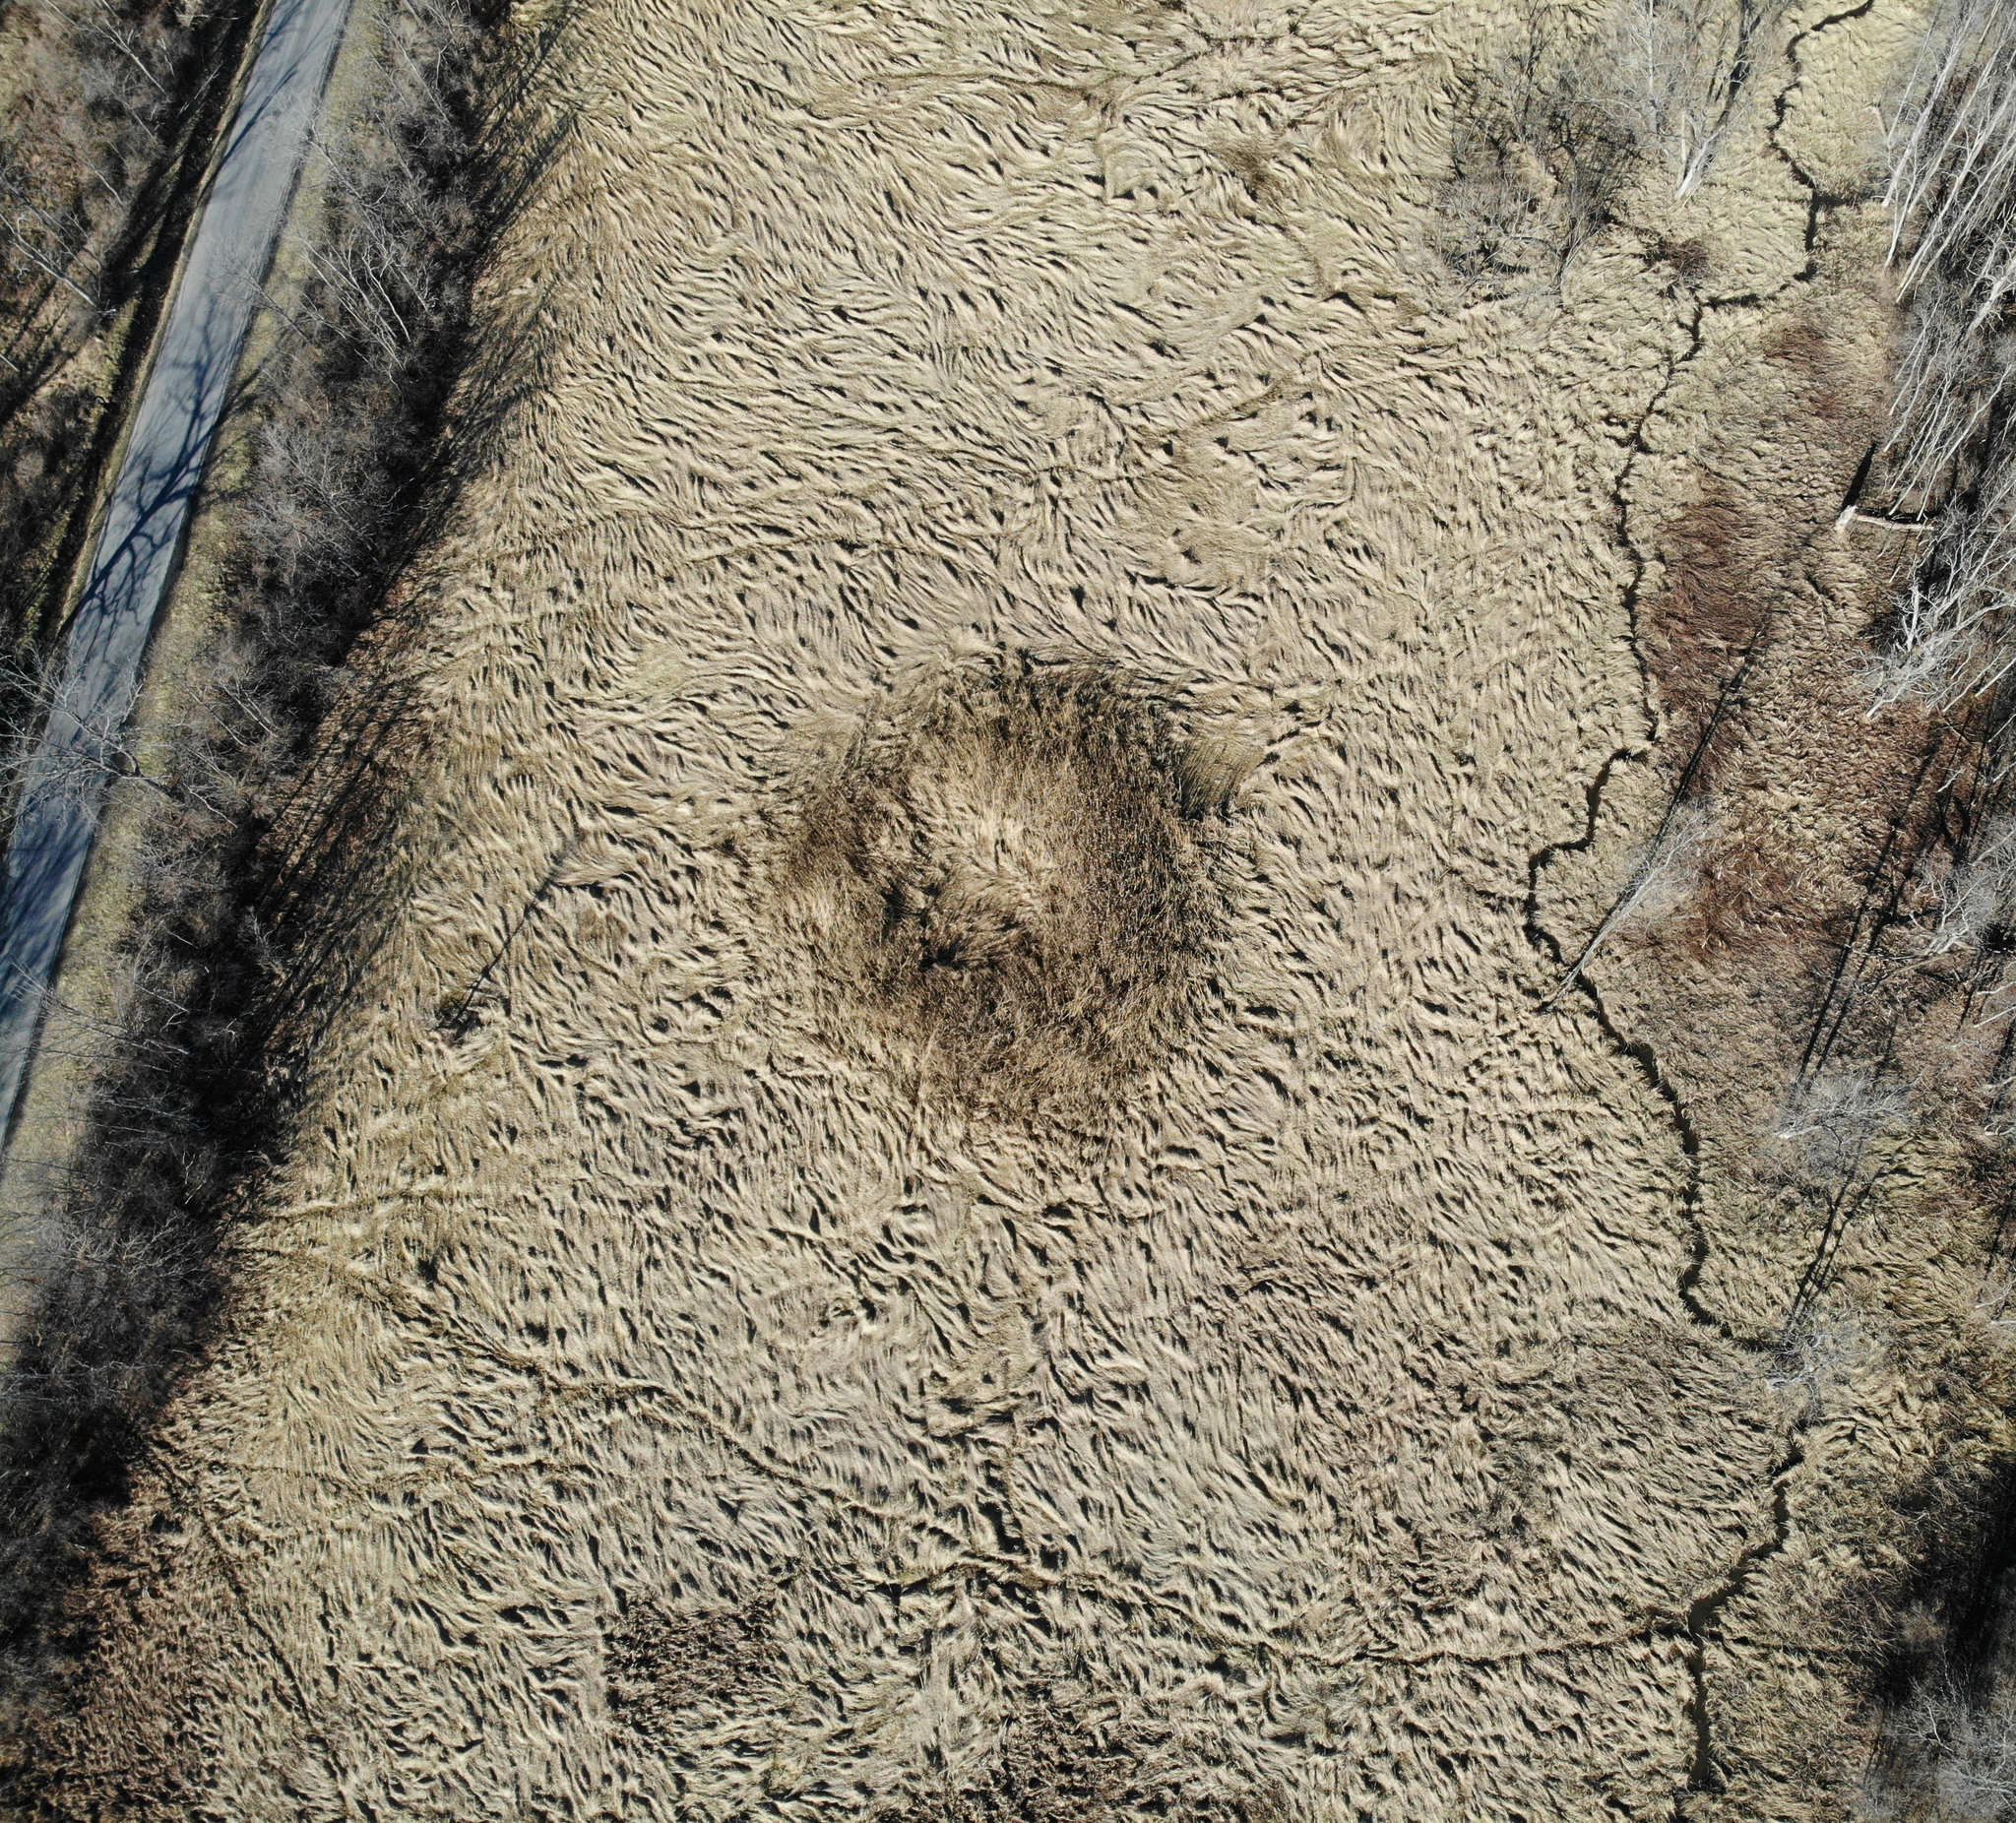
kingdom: Plantae
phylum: Tracheophyta
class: Liliopsida
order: Poales
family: Poaceae
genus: Phragmites
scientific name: Phragmites australis
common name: Common reed
